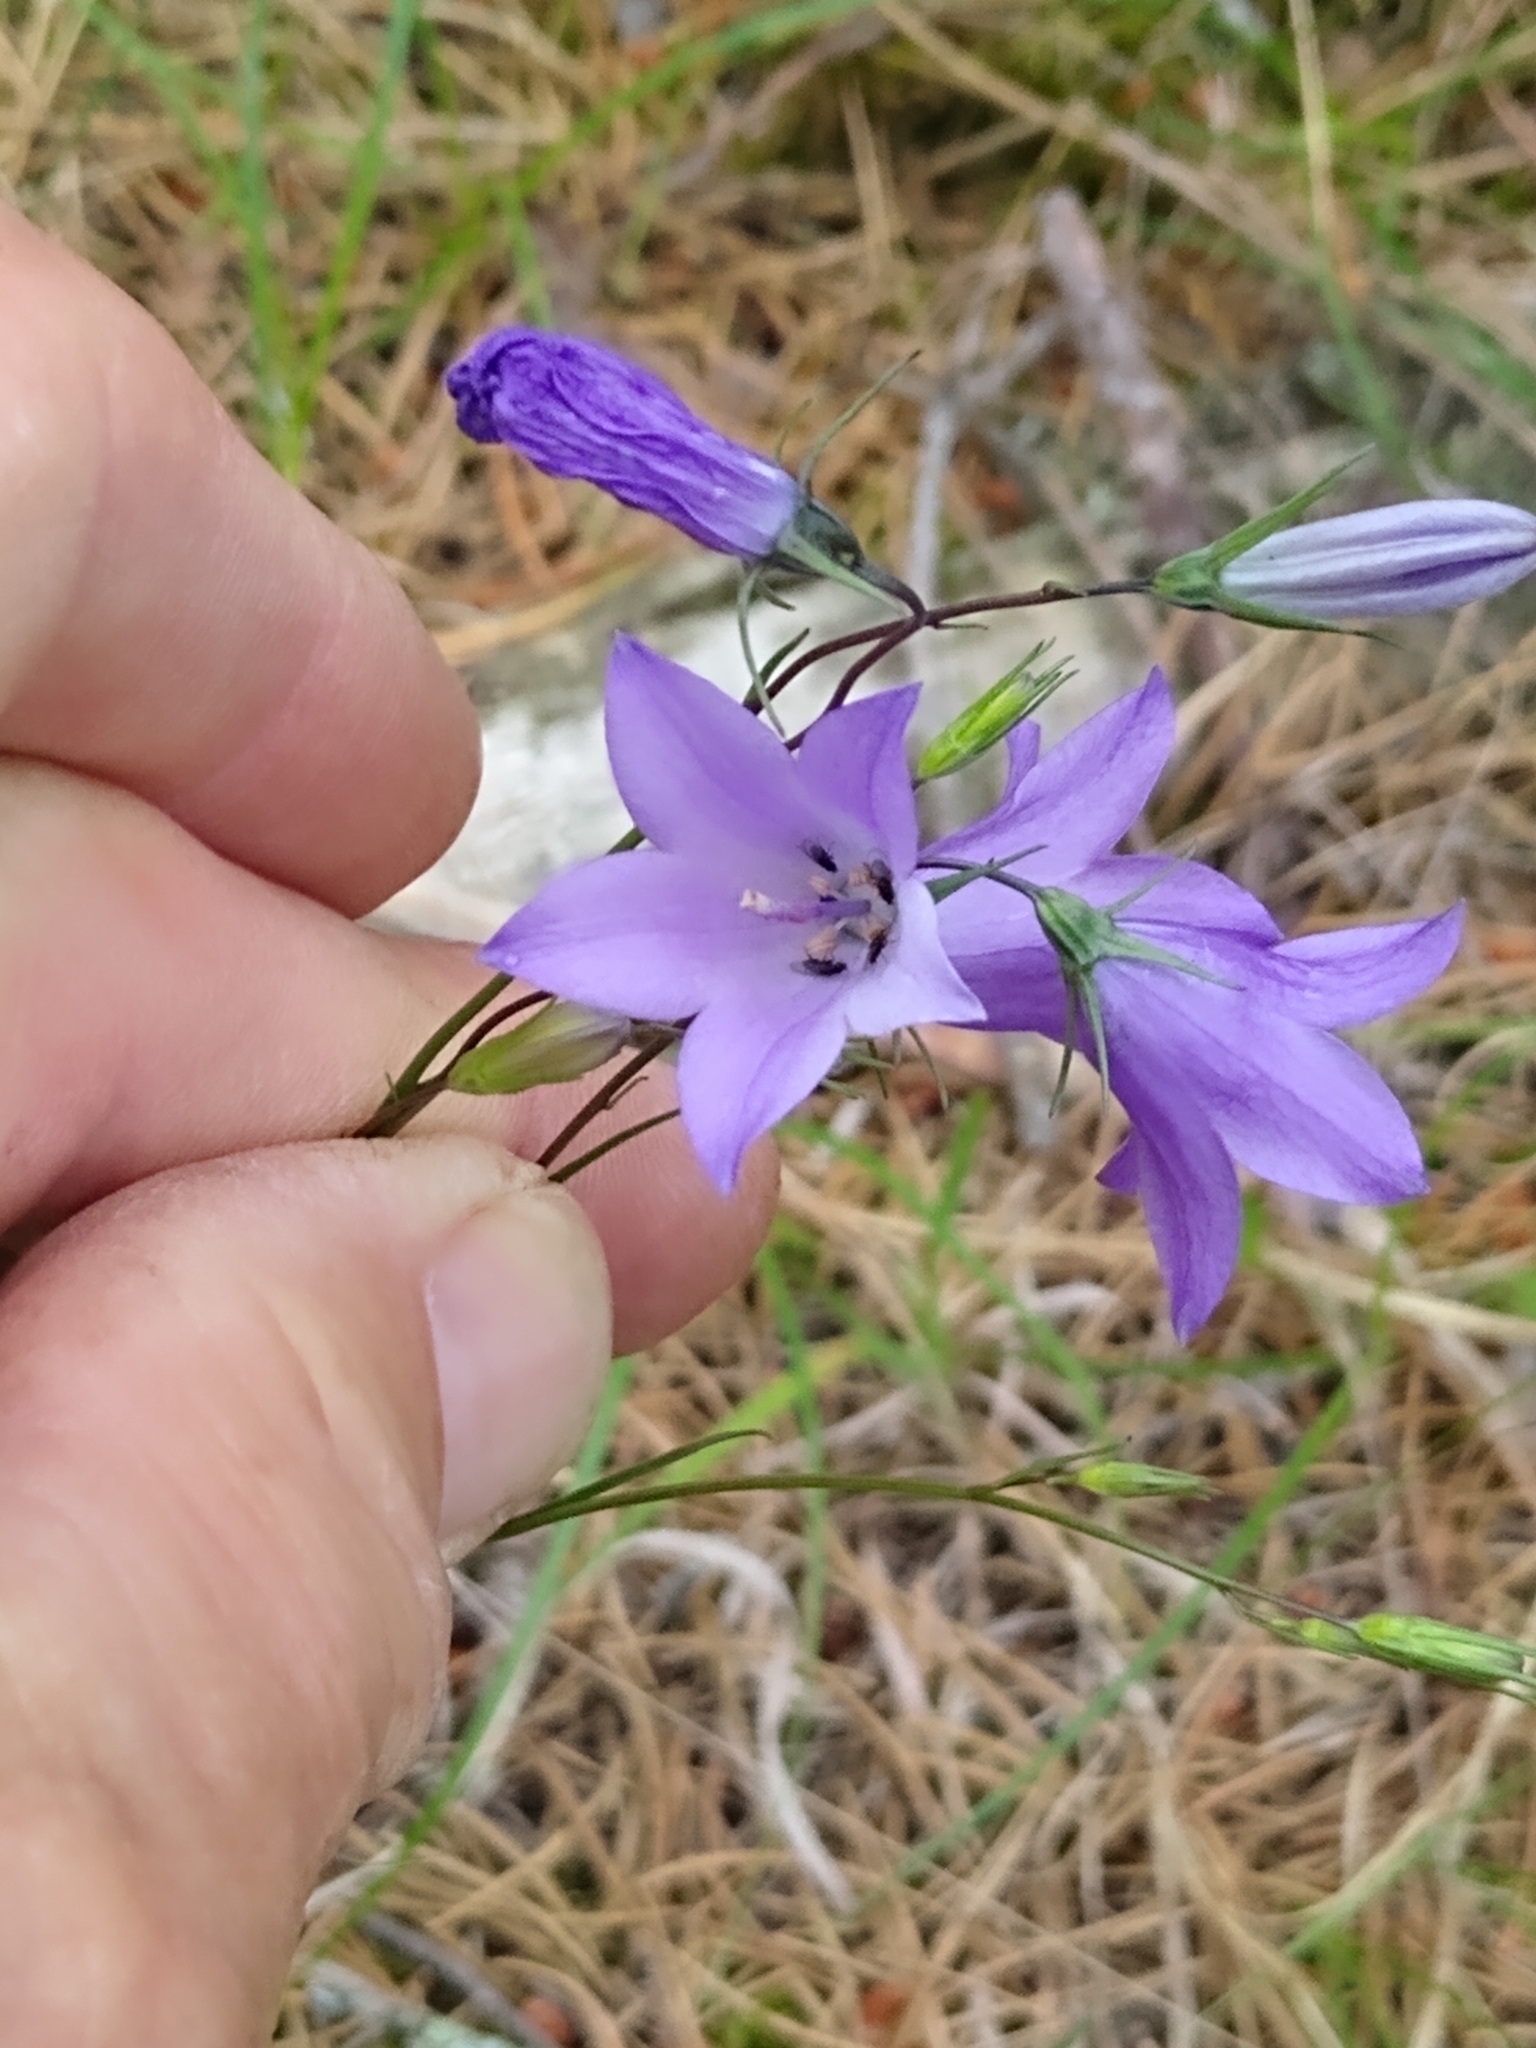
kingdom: Plantae
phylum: Tracheophyta
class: Magnoliopsida
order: Asterales
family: Campanulaceae
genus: Campanula
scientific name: Campanula intercedens
